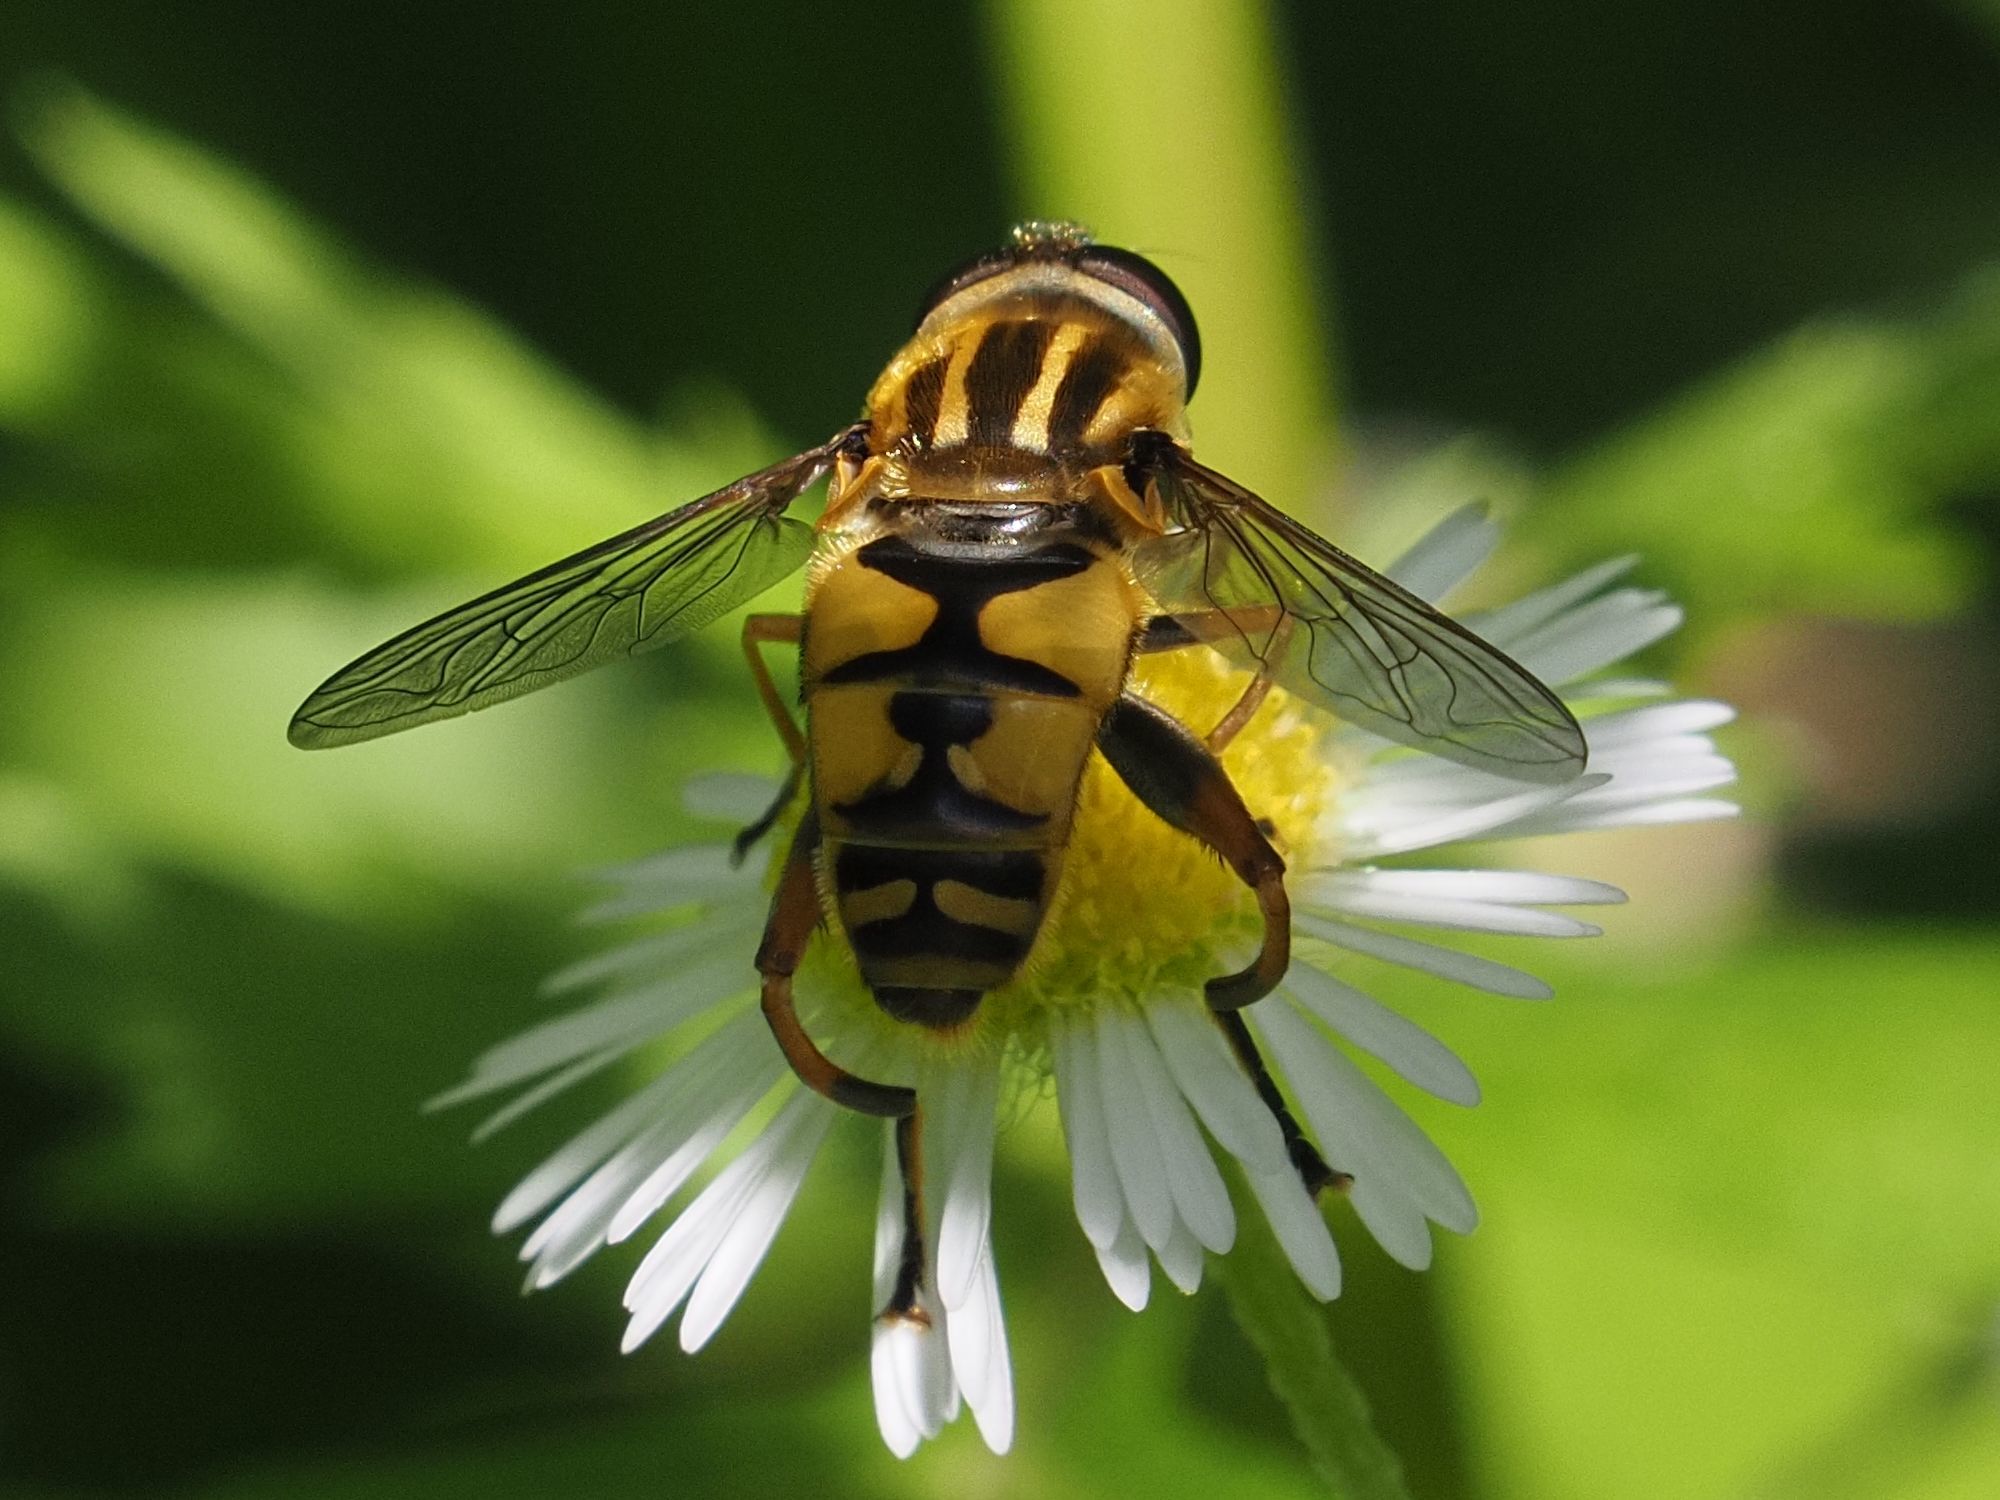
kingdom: Animalia
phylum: Arthropoda
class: Insecta
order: Diptera
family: Syrphidae
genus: Helophilus
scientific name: Helophilus pendulus
